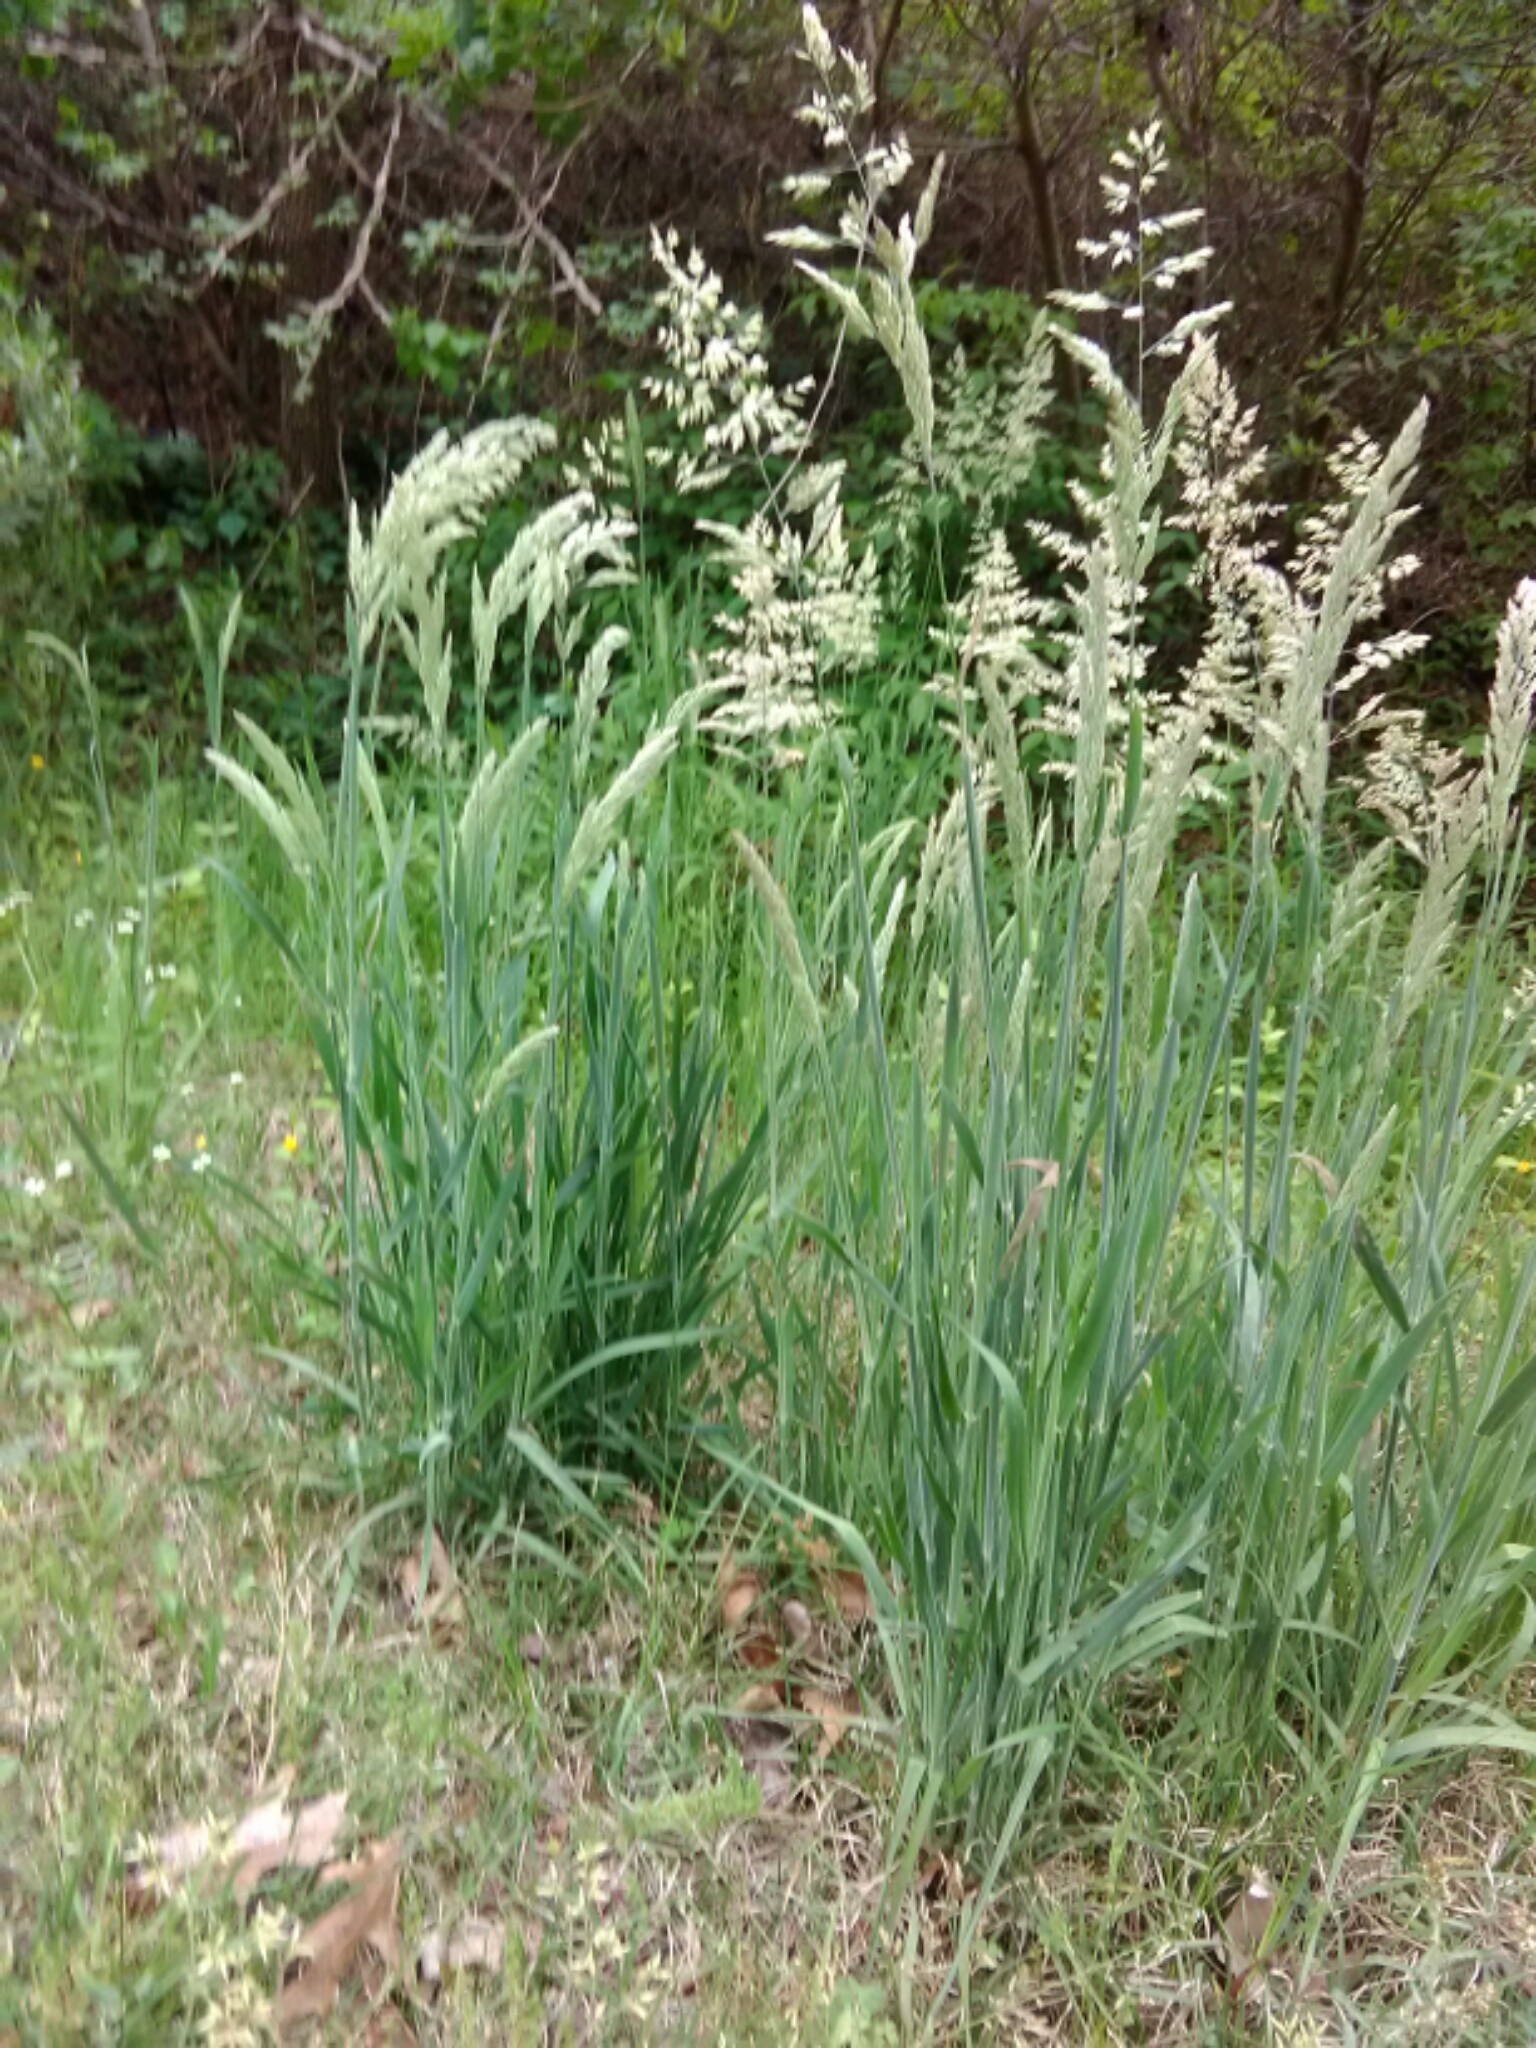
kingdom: Plantae
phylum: Tracheophyta
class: Liliopsida
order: Poales
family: Poaceae
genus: Holcus
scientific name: Holcus lanatus
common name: Yorkshire-fog
